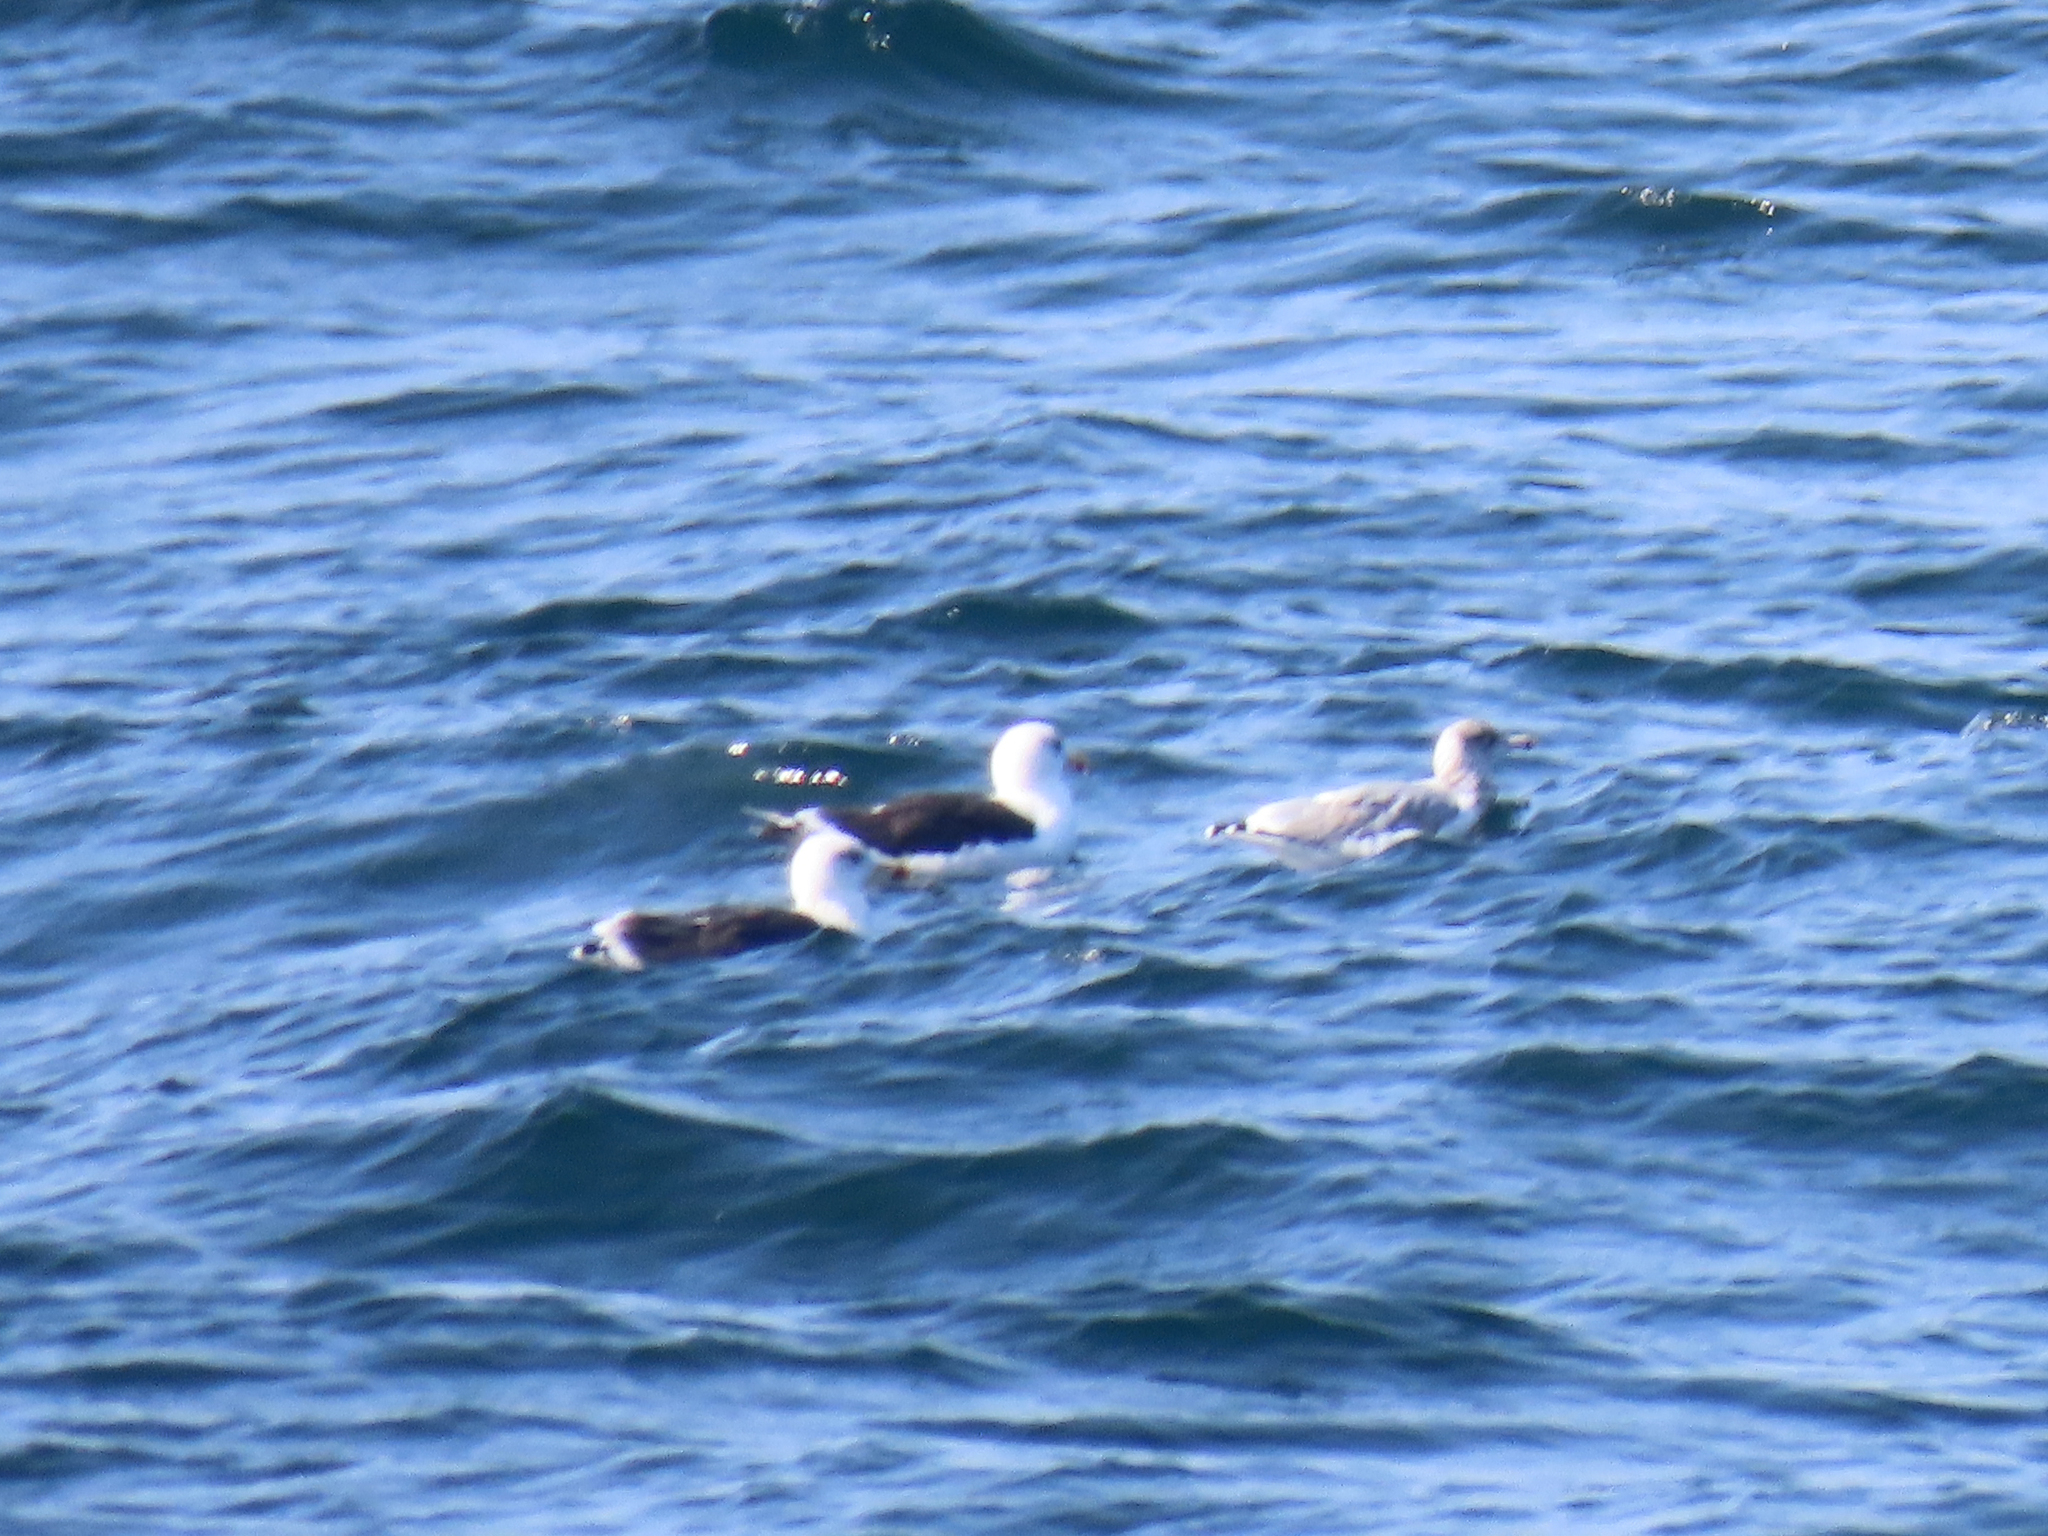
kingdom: Animalia
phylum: Chordata
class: Aves
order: Charadriiformes
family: Laridae
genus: Larus
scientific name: Larus marinus
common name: Great black-backed gull
